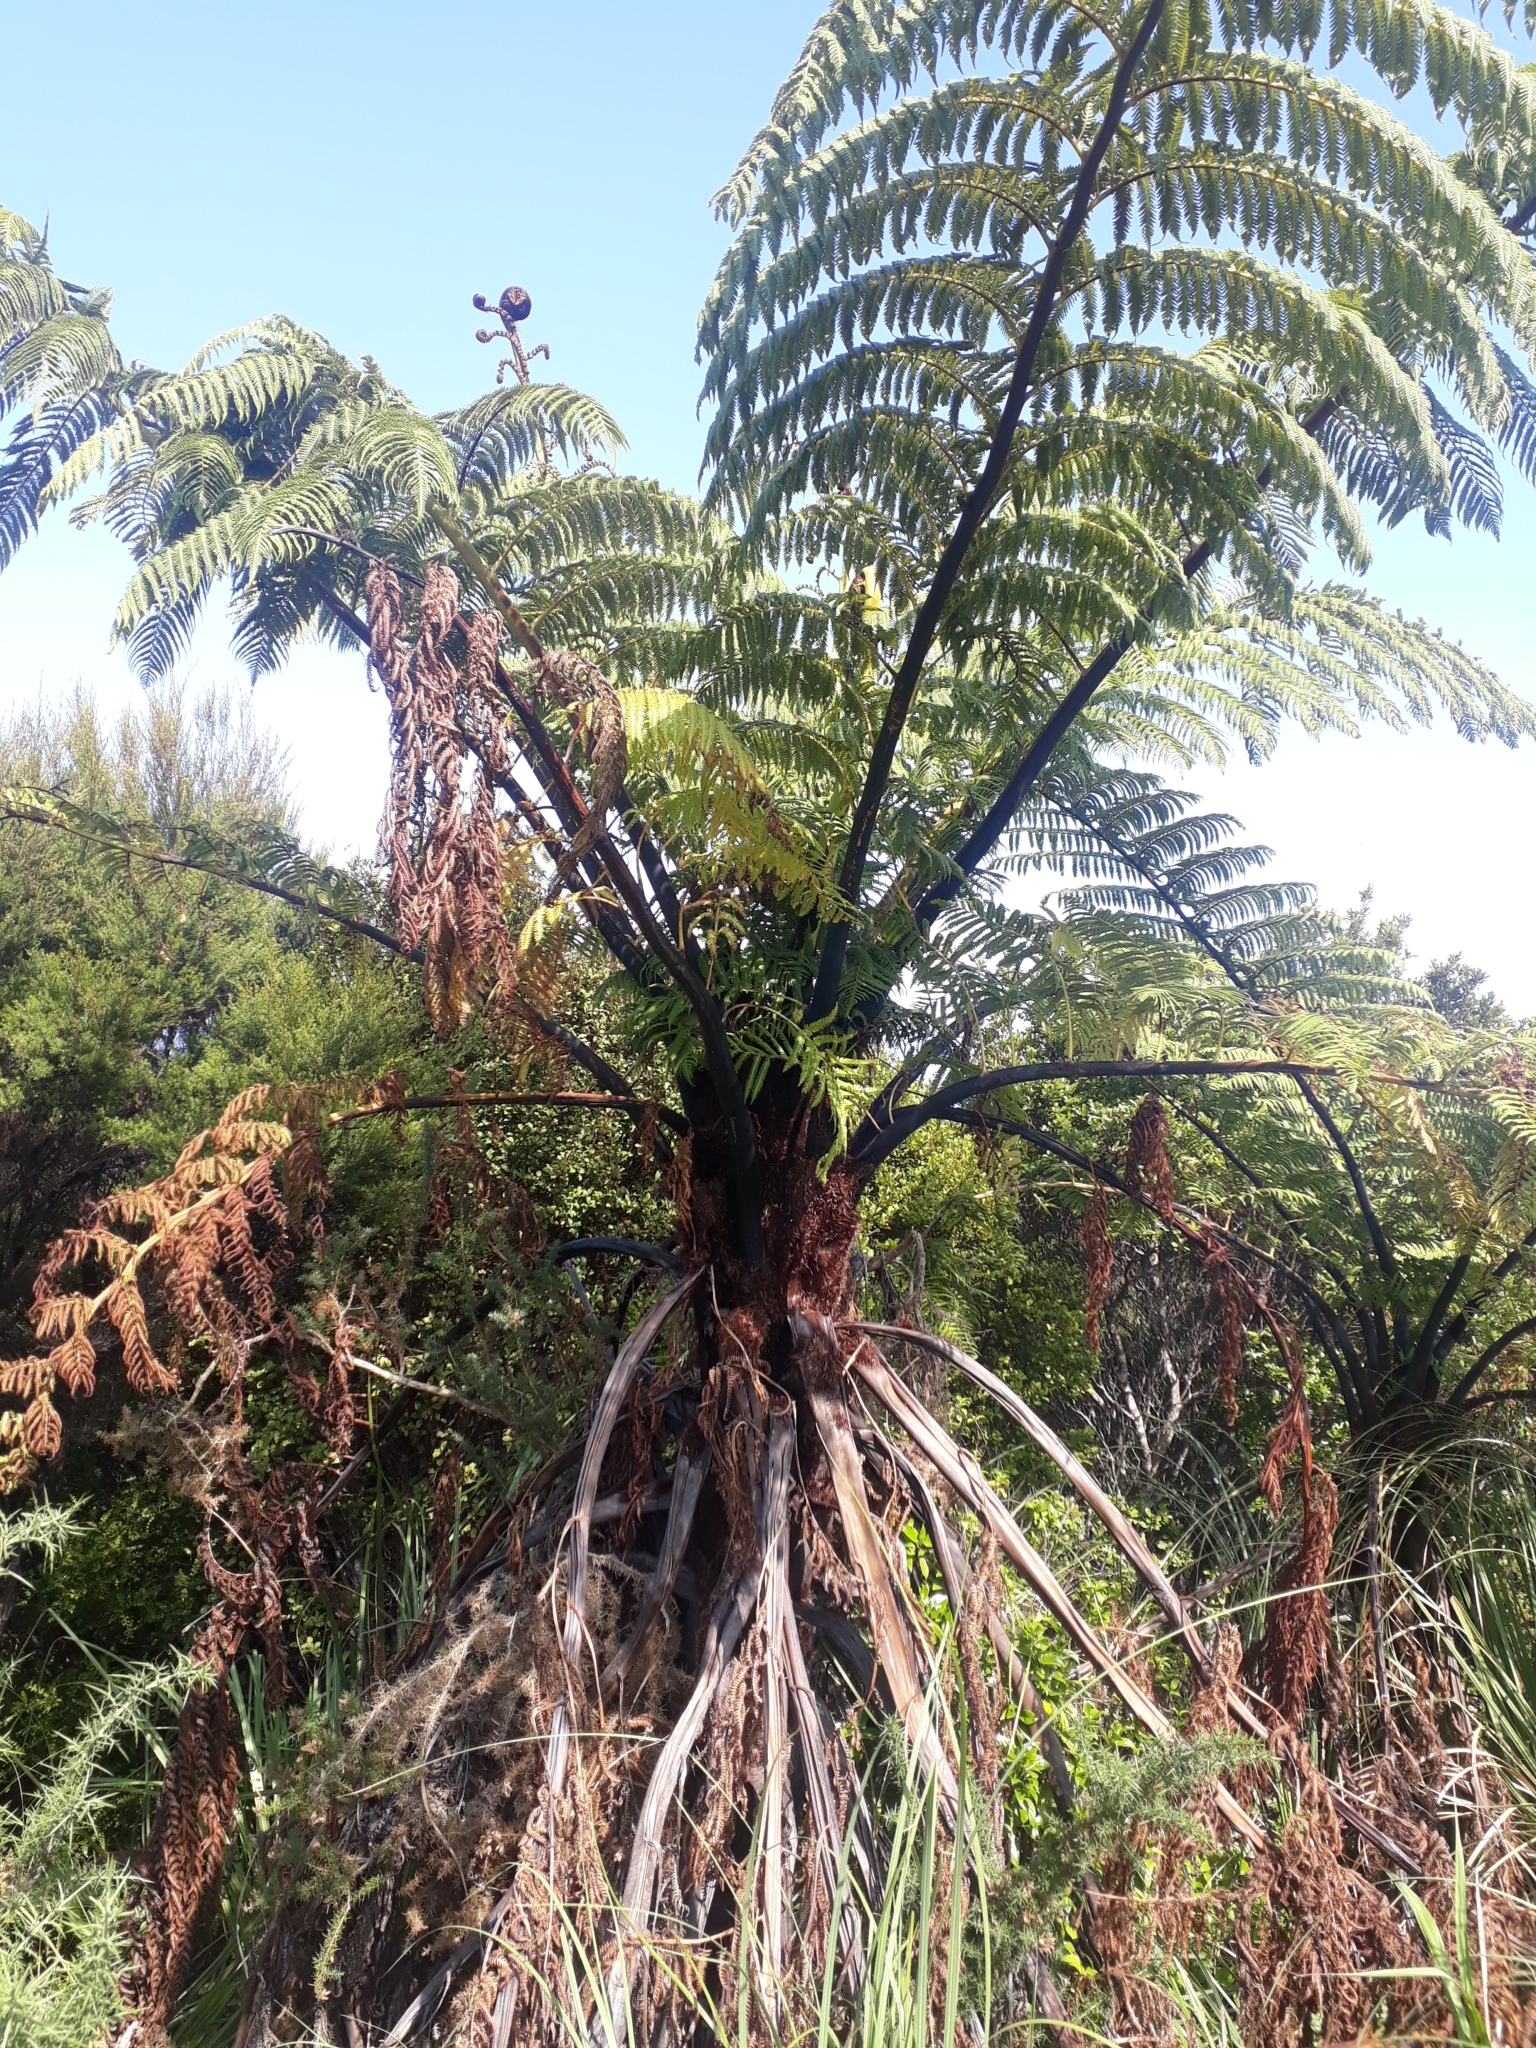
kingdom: Plantae
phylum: Tracheophyta
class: Polypodiopsida
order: Cyatheales
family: Cyatheaceae
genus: Sphaeropteris
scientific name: Sphaeropteris medullaris
